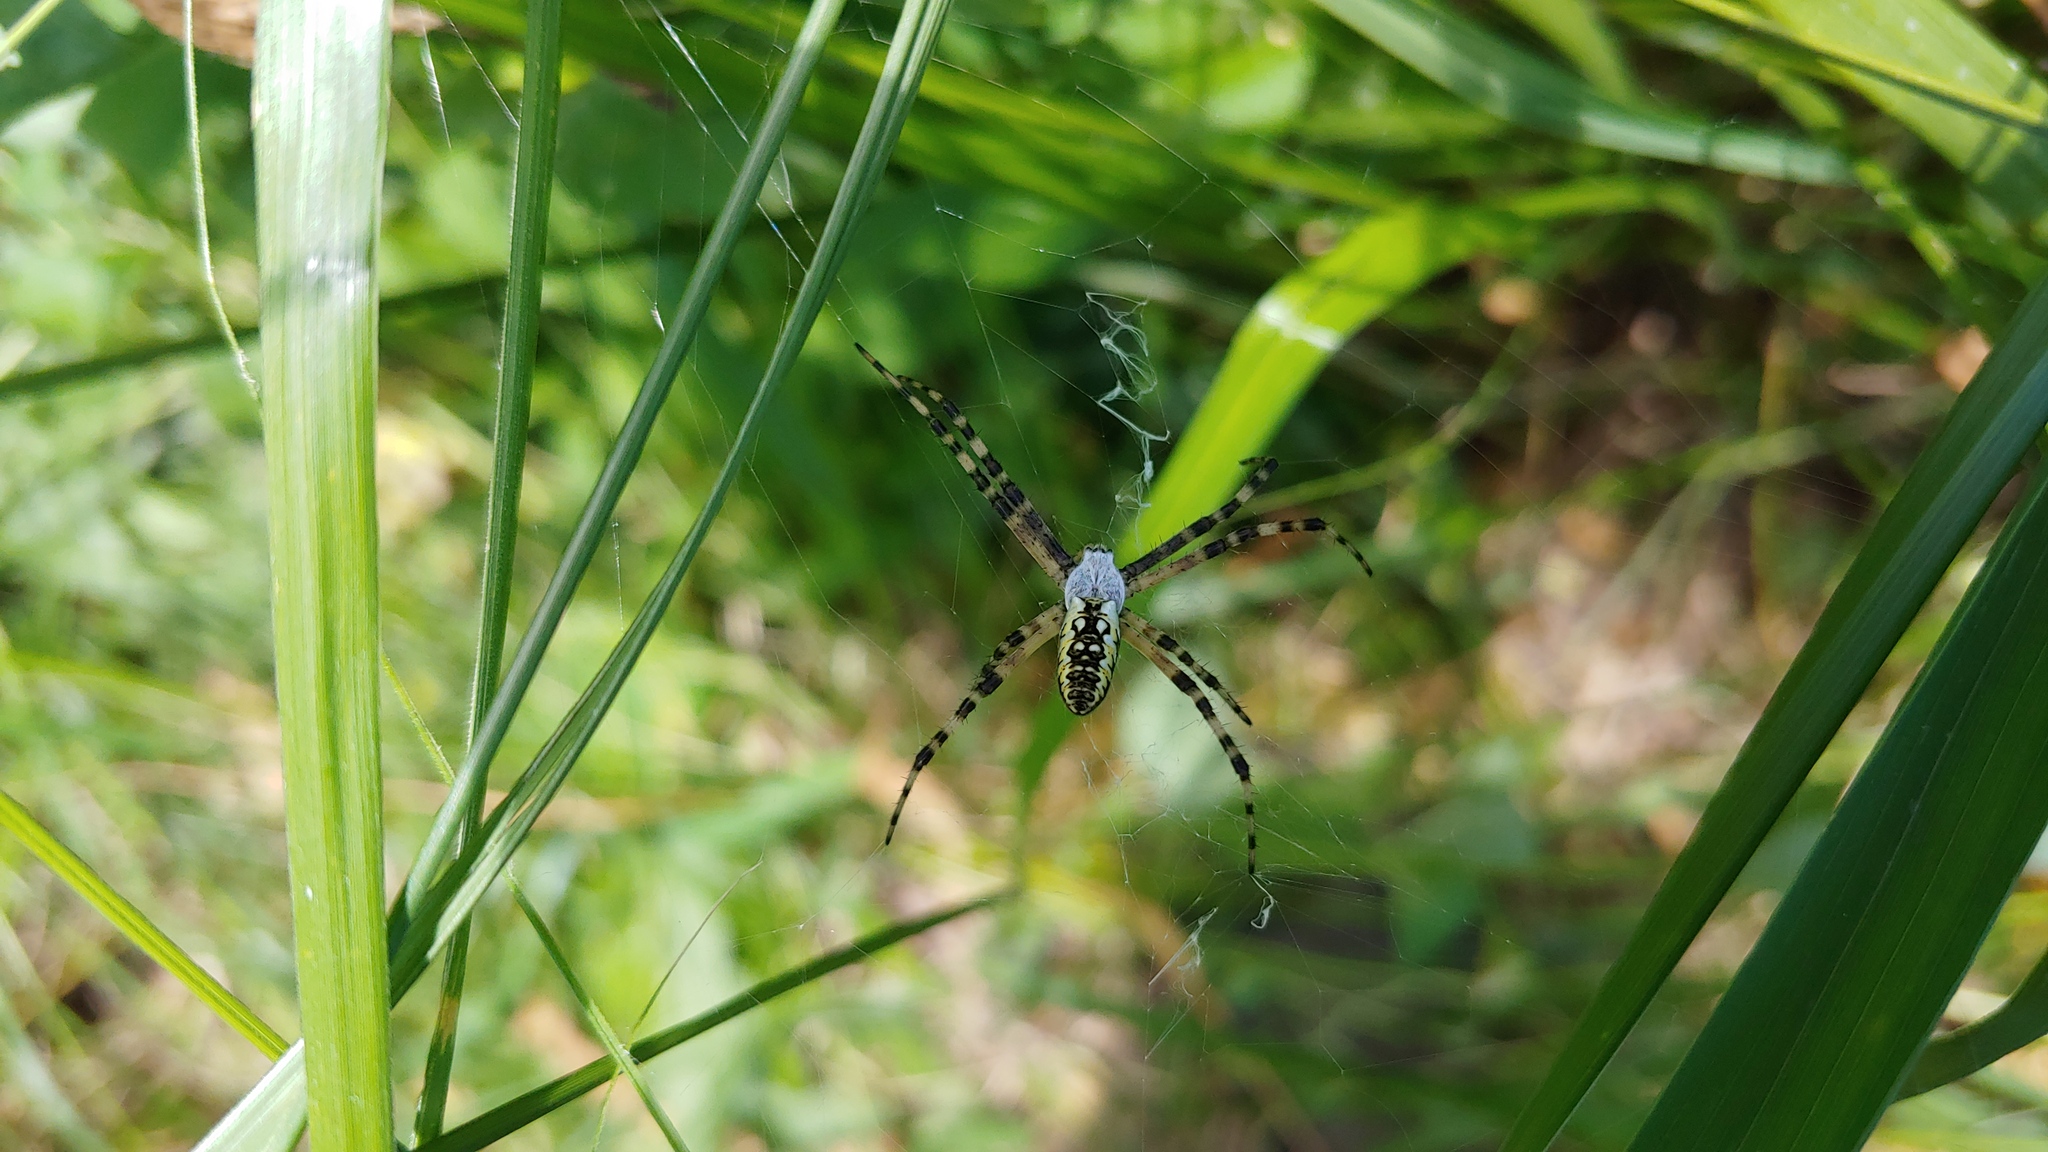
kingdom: Animalia
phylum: Arthropoda
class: Arachnida
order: Araneae
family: Araneidae
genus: Argiope
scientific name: Argiope aurantia
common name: Orb weavers
